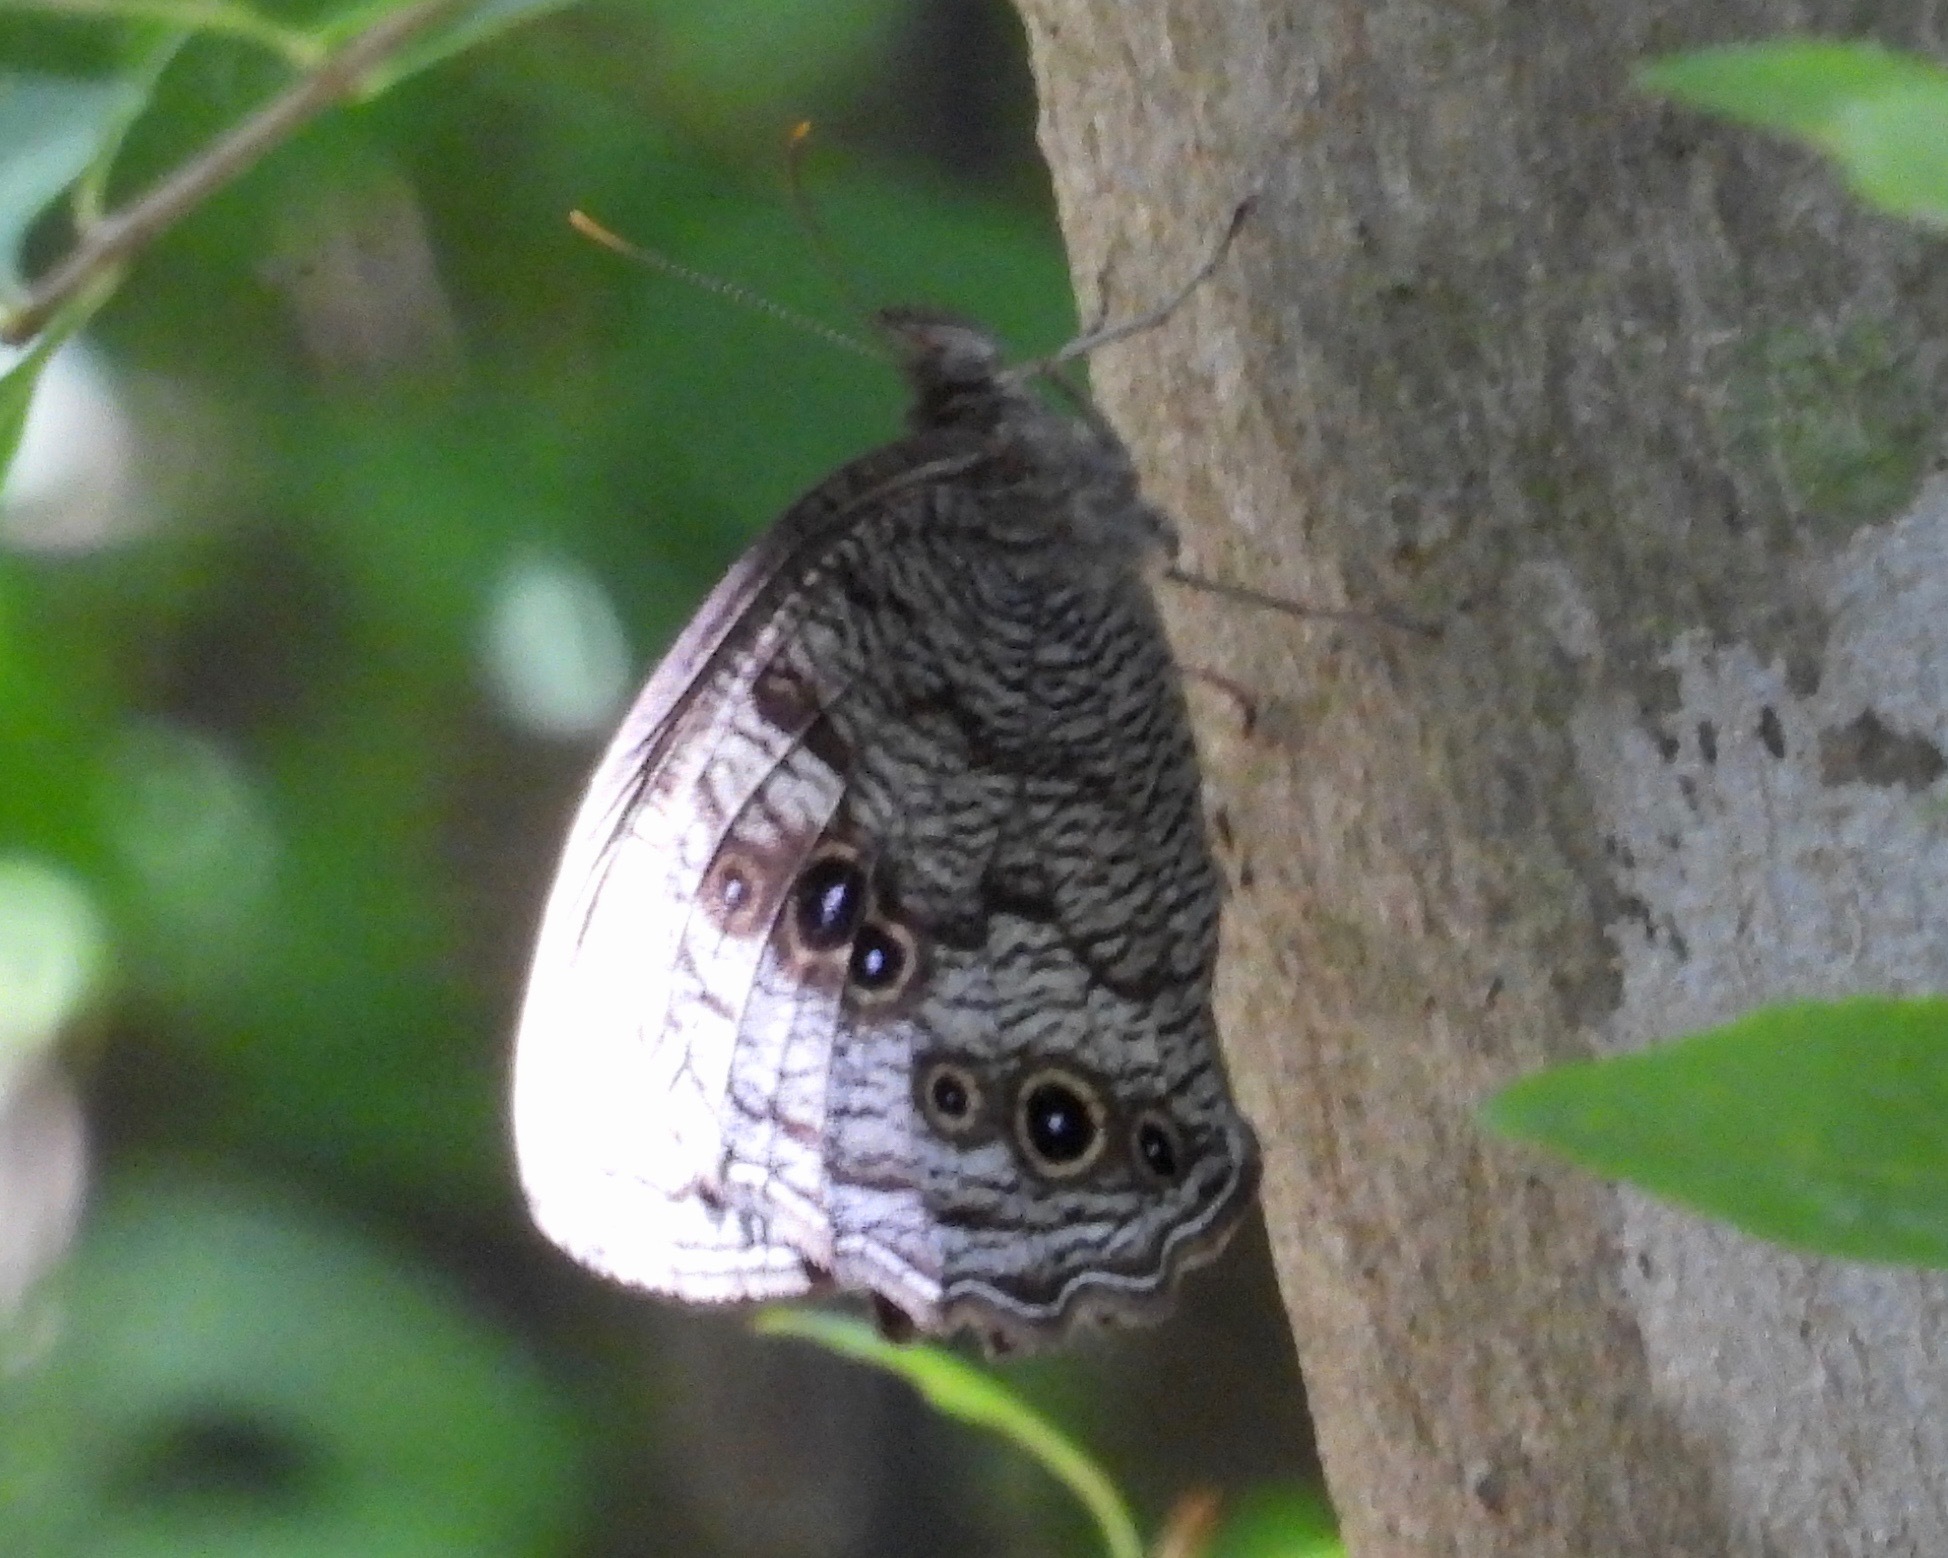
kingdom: Animalia
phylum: Arthropoda
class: Insecta
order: Lepidoptera
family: Nymphalidae
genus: Cercyonis
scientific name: Cercyonis pegala
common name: Common wood-nymph
